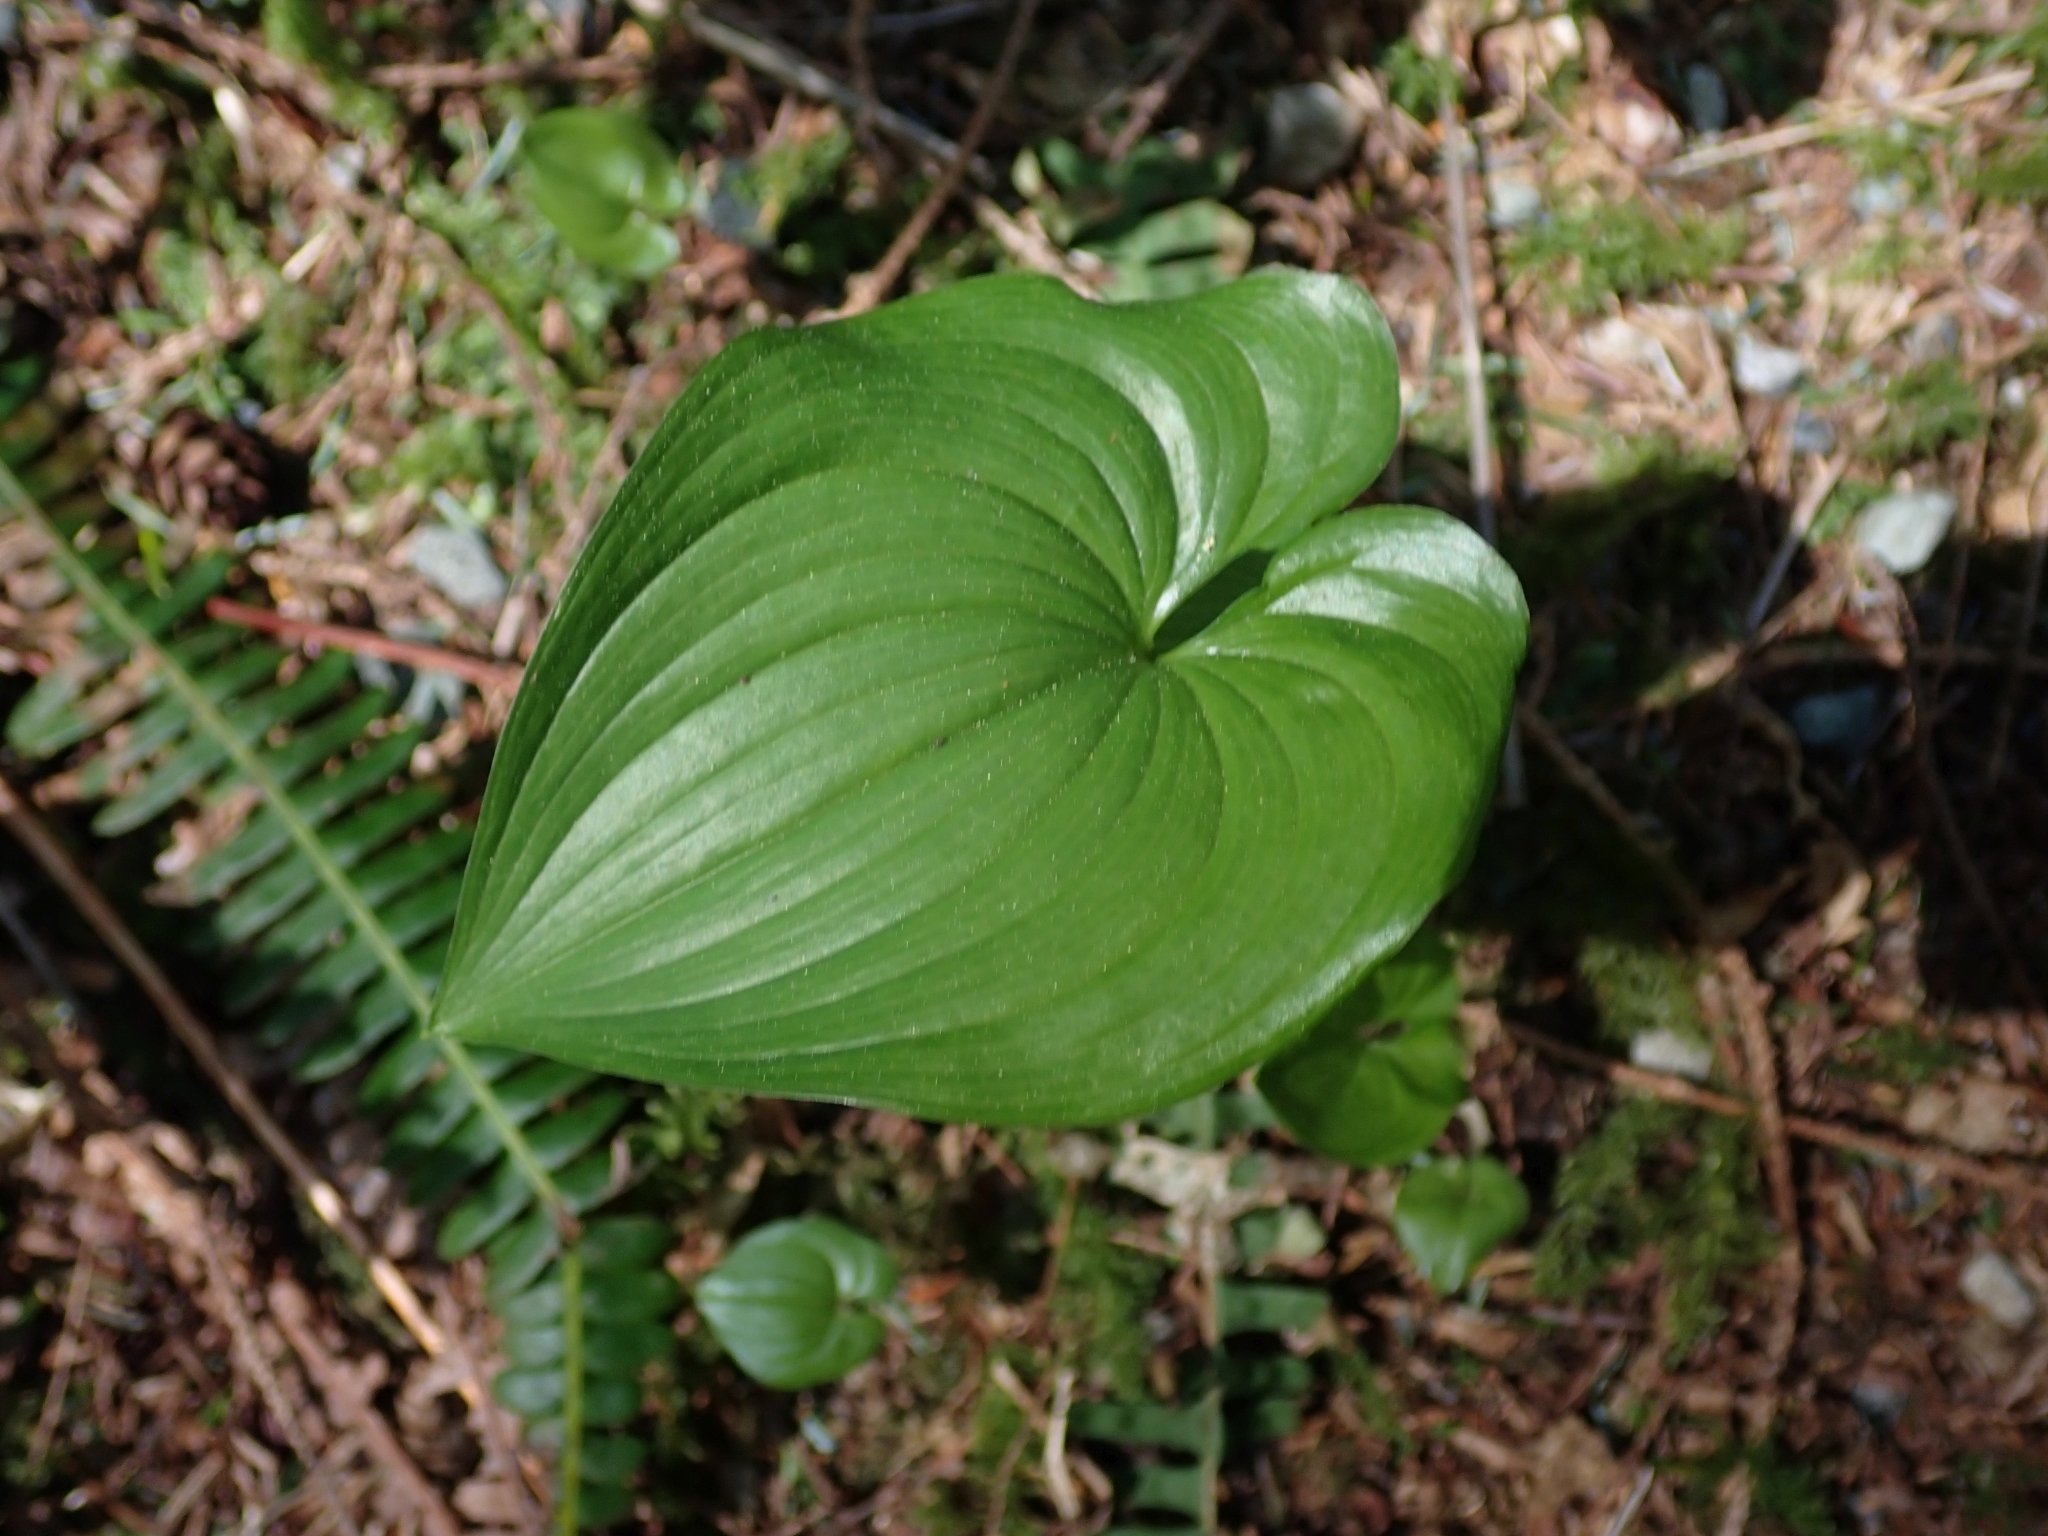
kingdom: Plantae
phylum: Tracheophyta
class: Liliopsida
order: Asparagales
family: Asparagaceae
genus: Maianthemum
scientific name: Maianthemum dilatatum
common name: False lily-of-the-valley
